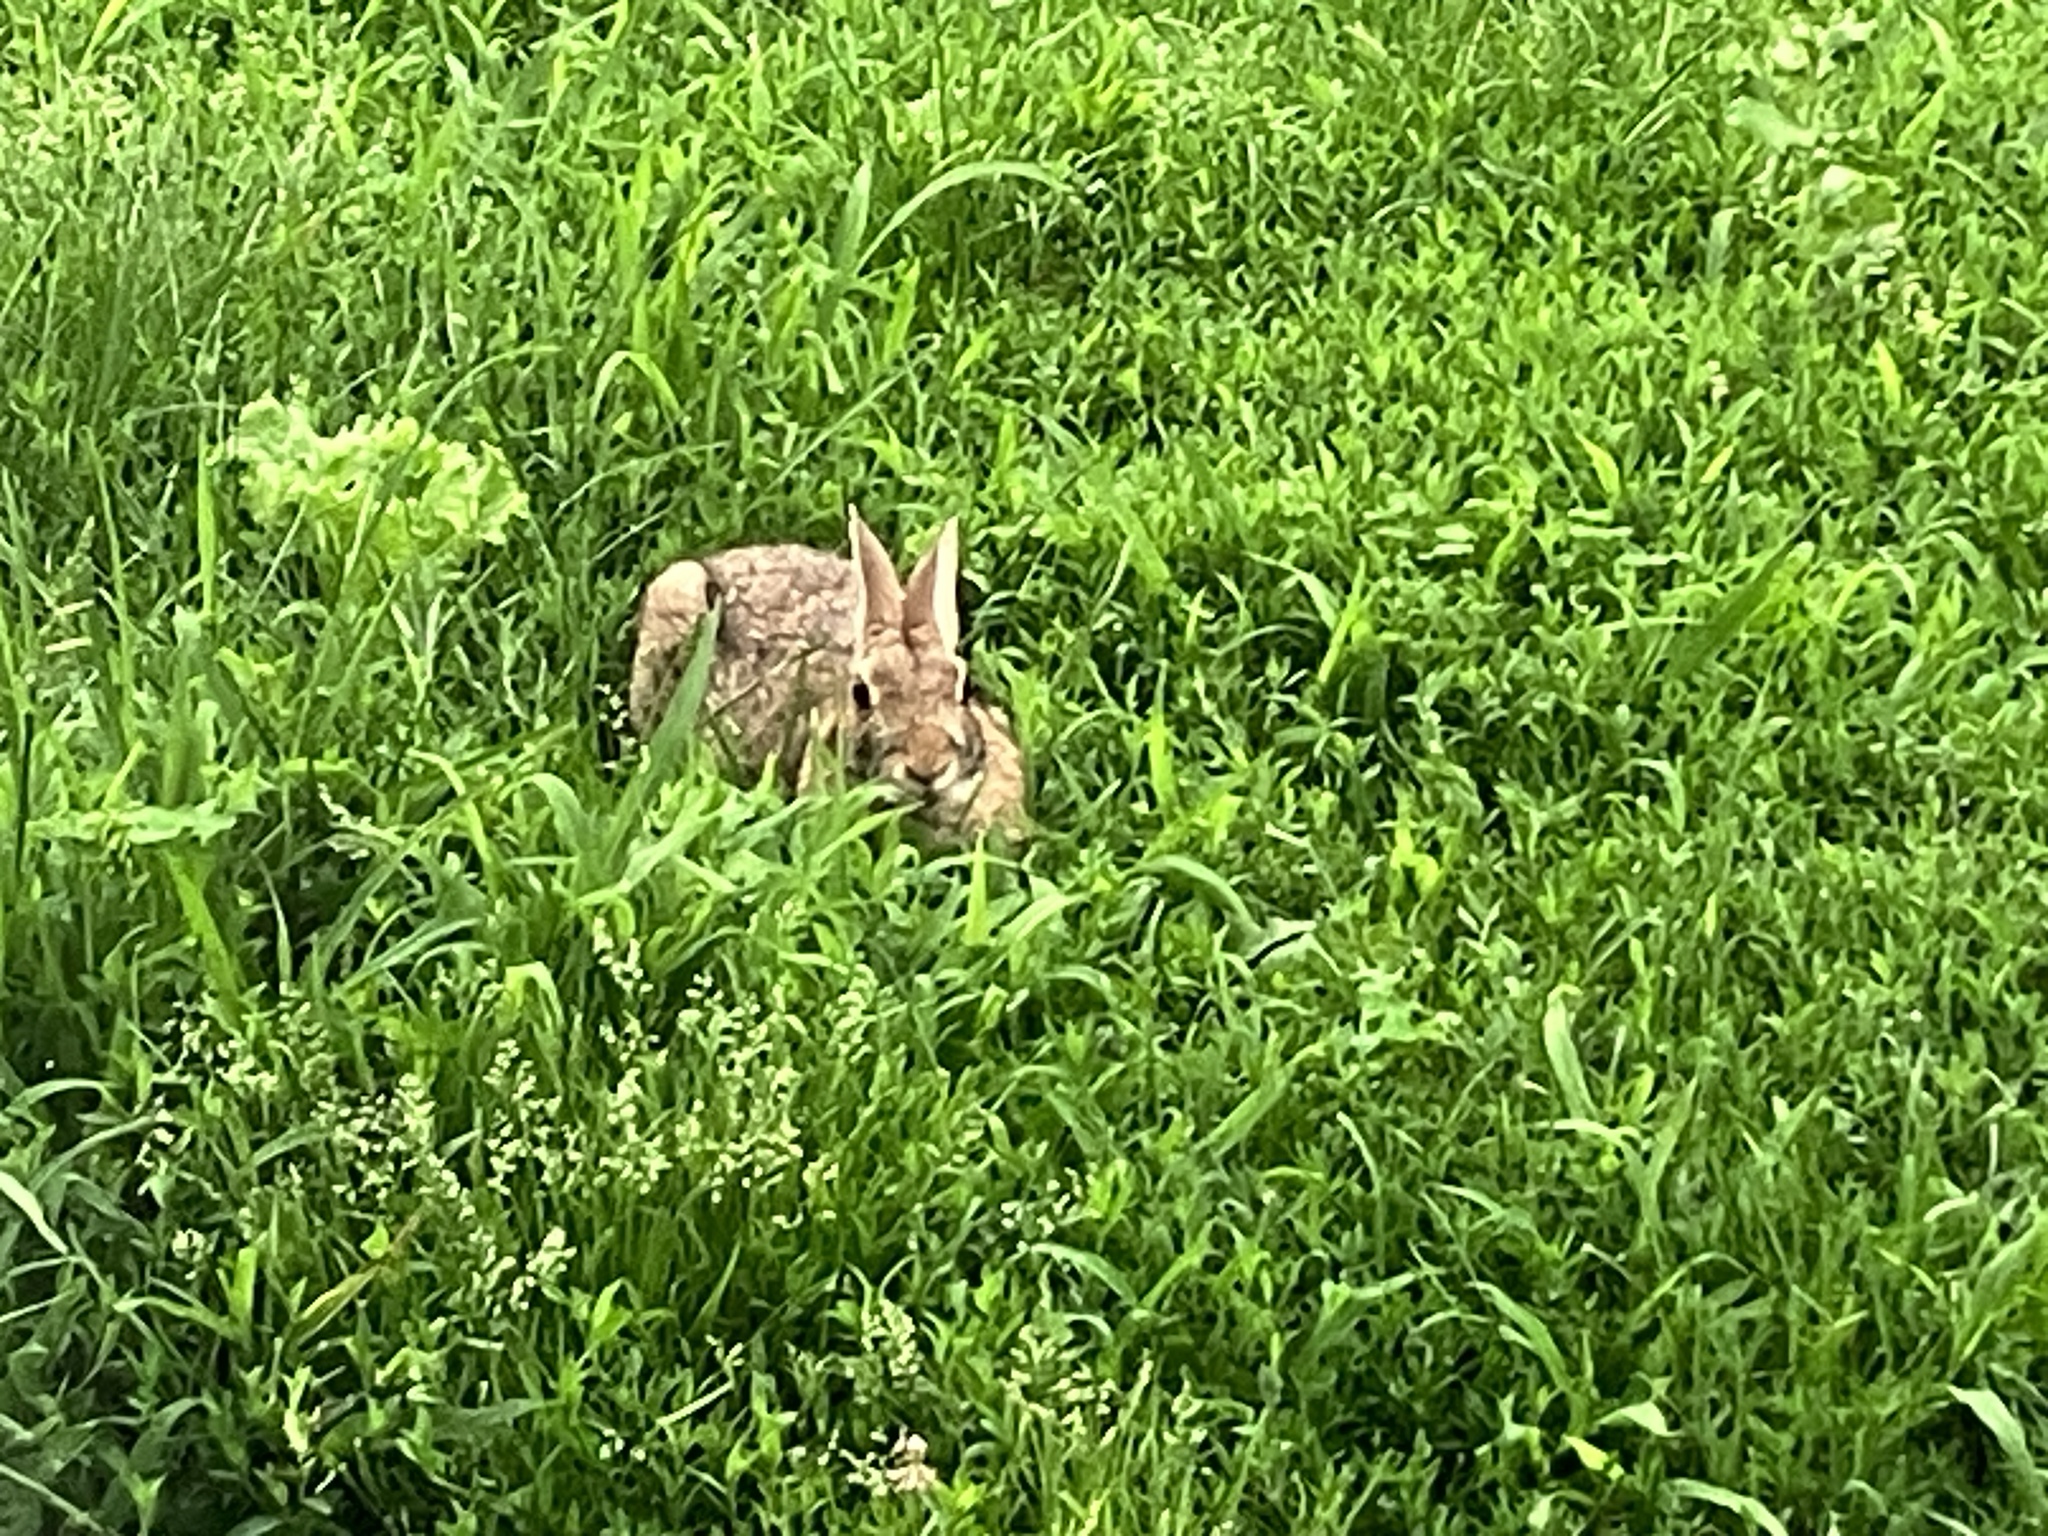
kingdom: Animalia
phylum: Chordata
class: Mammalia
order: Lagomorpha
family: Leporidae
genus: Sylvilagus
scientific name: Sylvilagus floridanus
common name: Eastern cottontail
